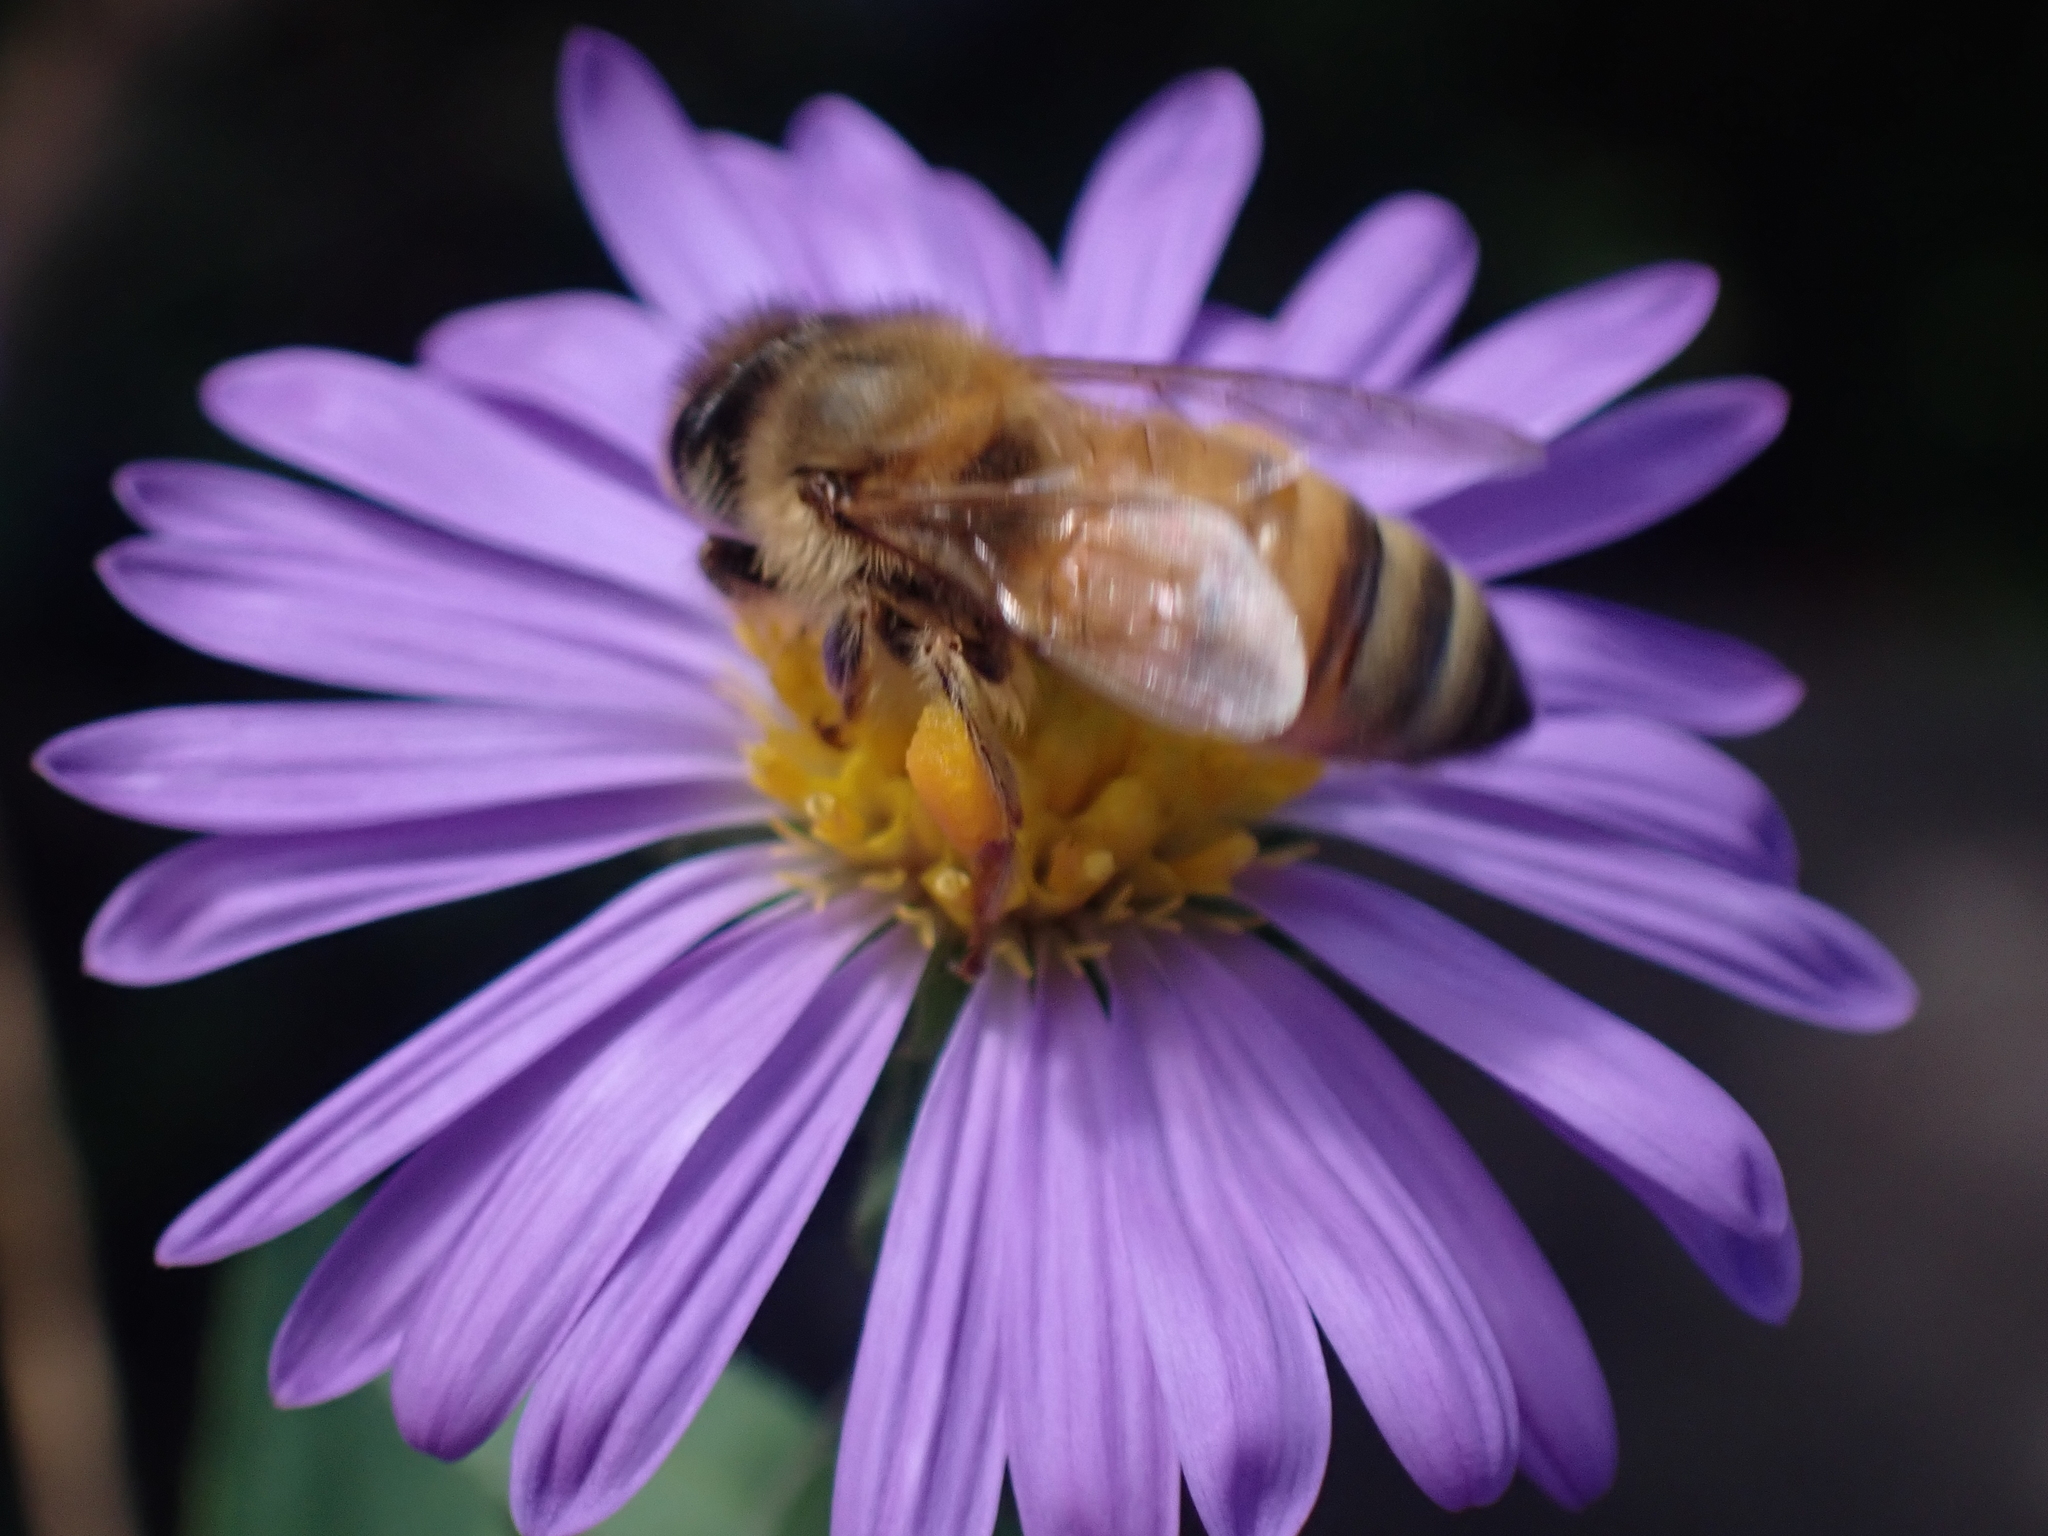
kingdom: Animalia
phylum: Arthropoda
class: Insecta
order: Hymenoptera
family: Apidae
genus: Apis
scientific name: Apis mellifera
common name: Honey bee
